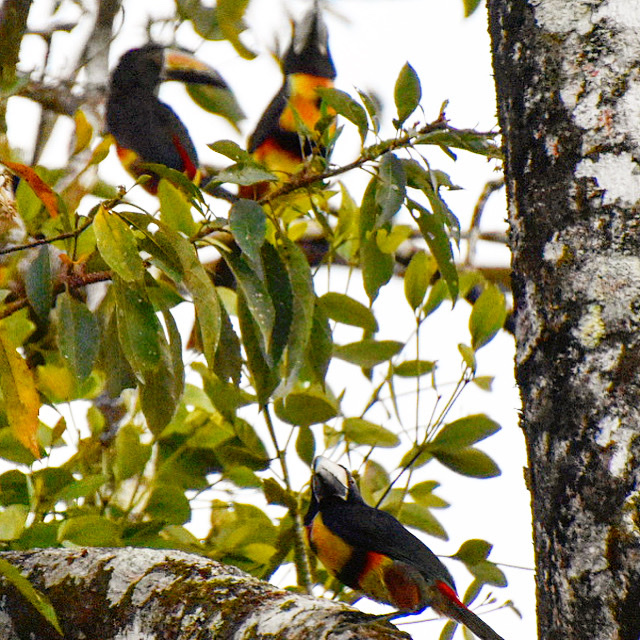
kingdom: Animalia
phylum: Chordata
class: Aves
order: Piciformes
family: Ramphastidae
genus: Pteroglossus
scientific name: Pteroglossus torquatus
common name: Collared aracari
